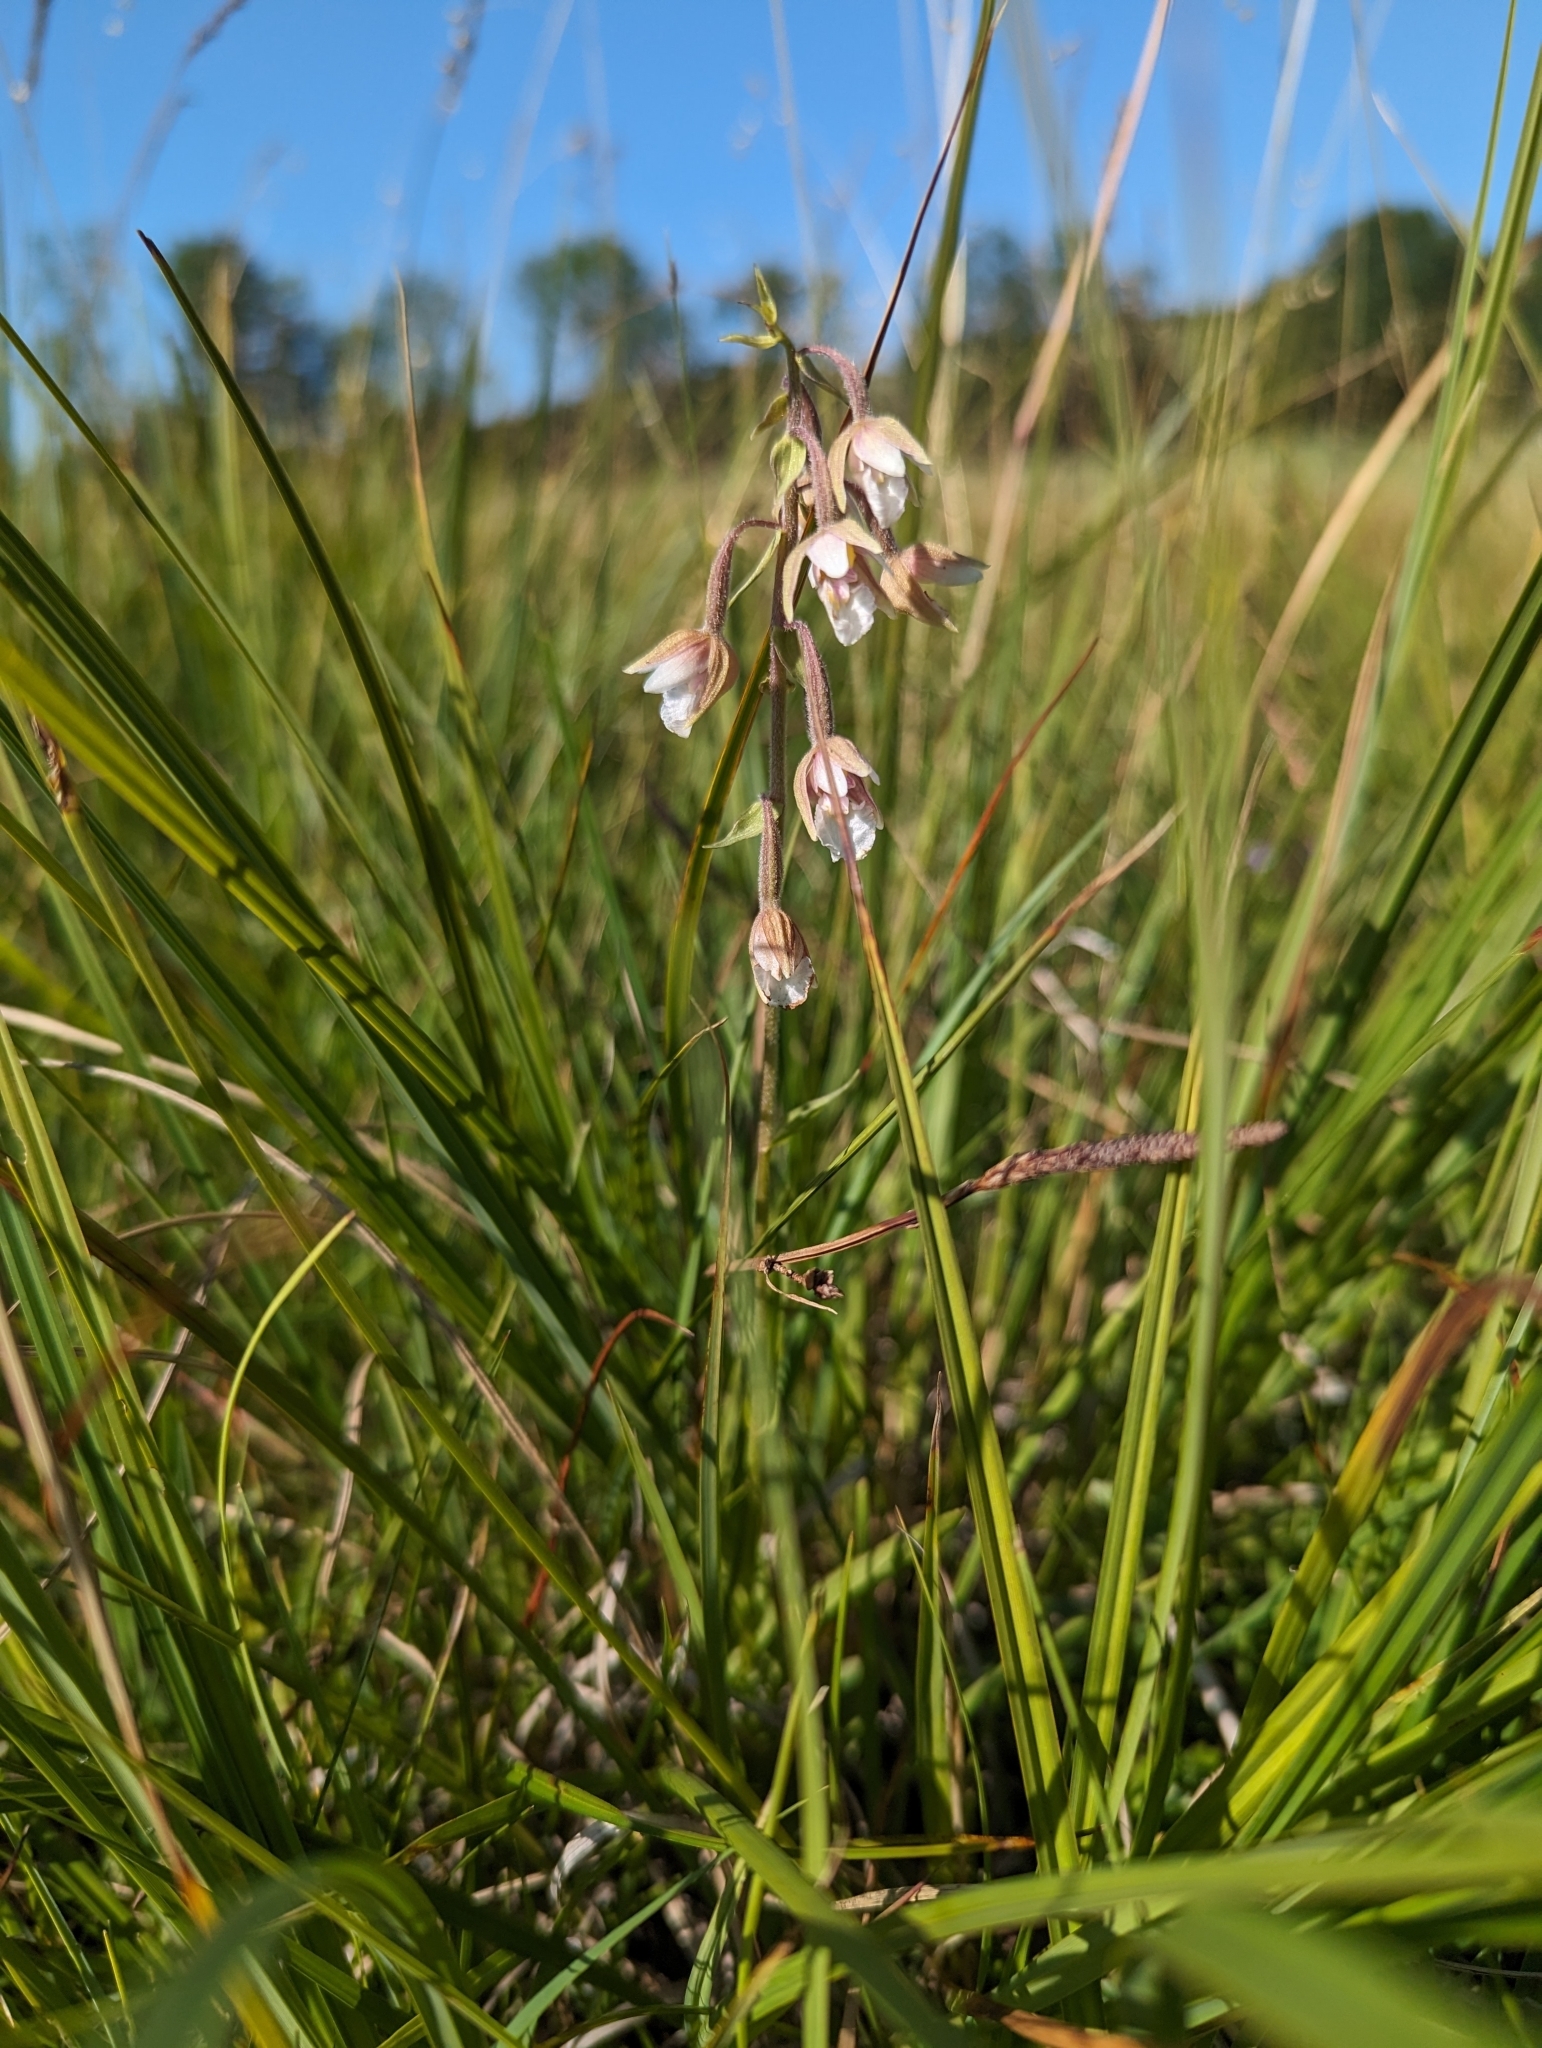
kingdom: Plantae
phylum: Tracheophyta
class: Liliopsida
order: Asparagales
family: Orchidaceae
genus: Epipactis
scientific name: Epipactis palustris
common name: Marsh helleborine
